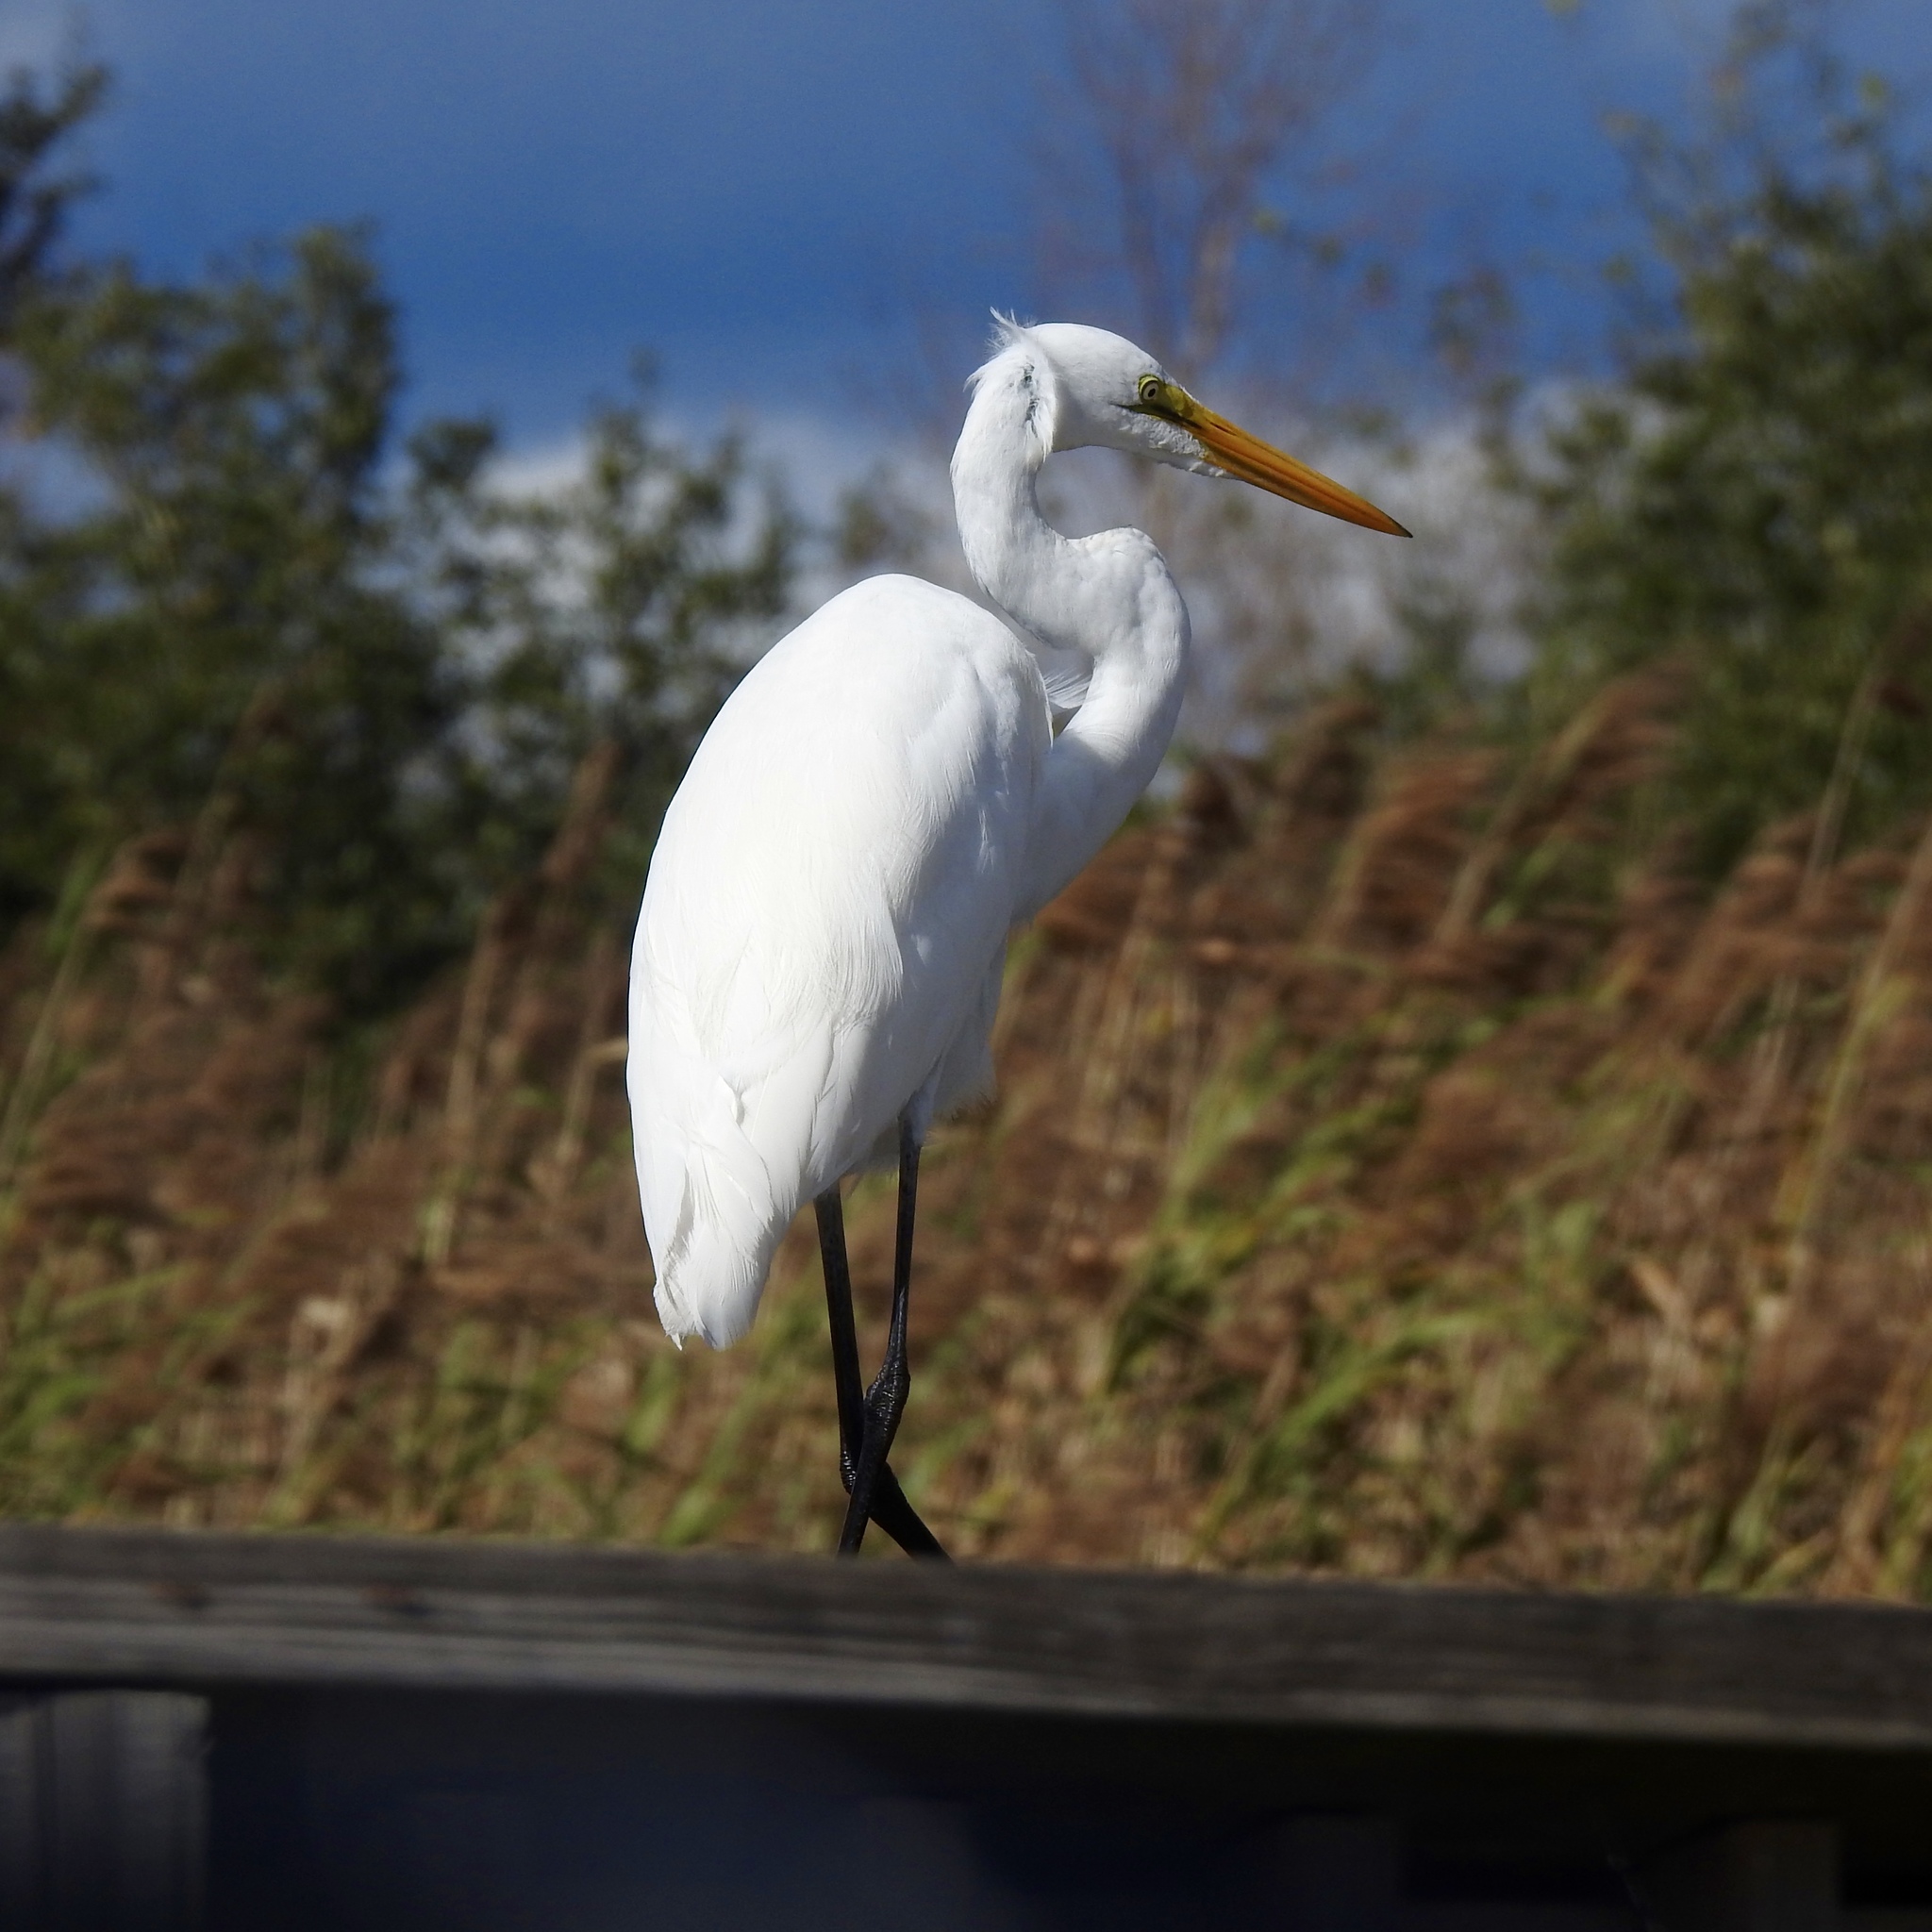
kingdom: Animalia
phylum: Chordata
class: Aves
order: Pelecaniformes
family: Ardeidae
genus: Ardea
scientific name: Ardea alba
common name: Great egret
